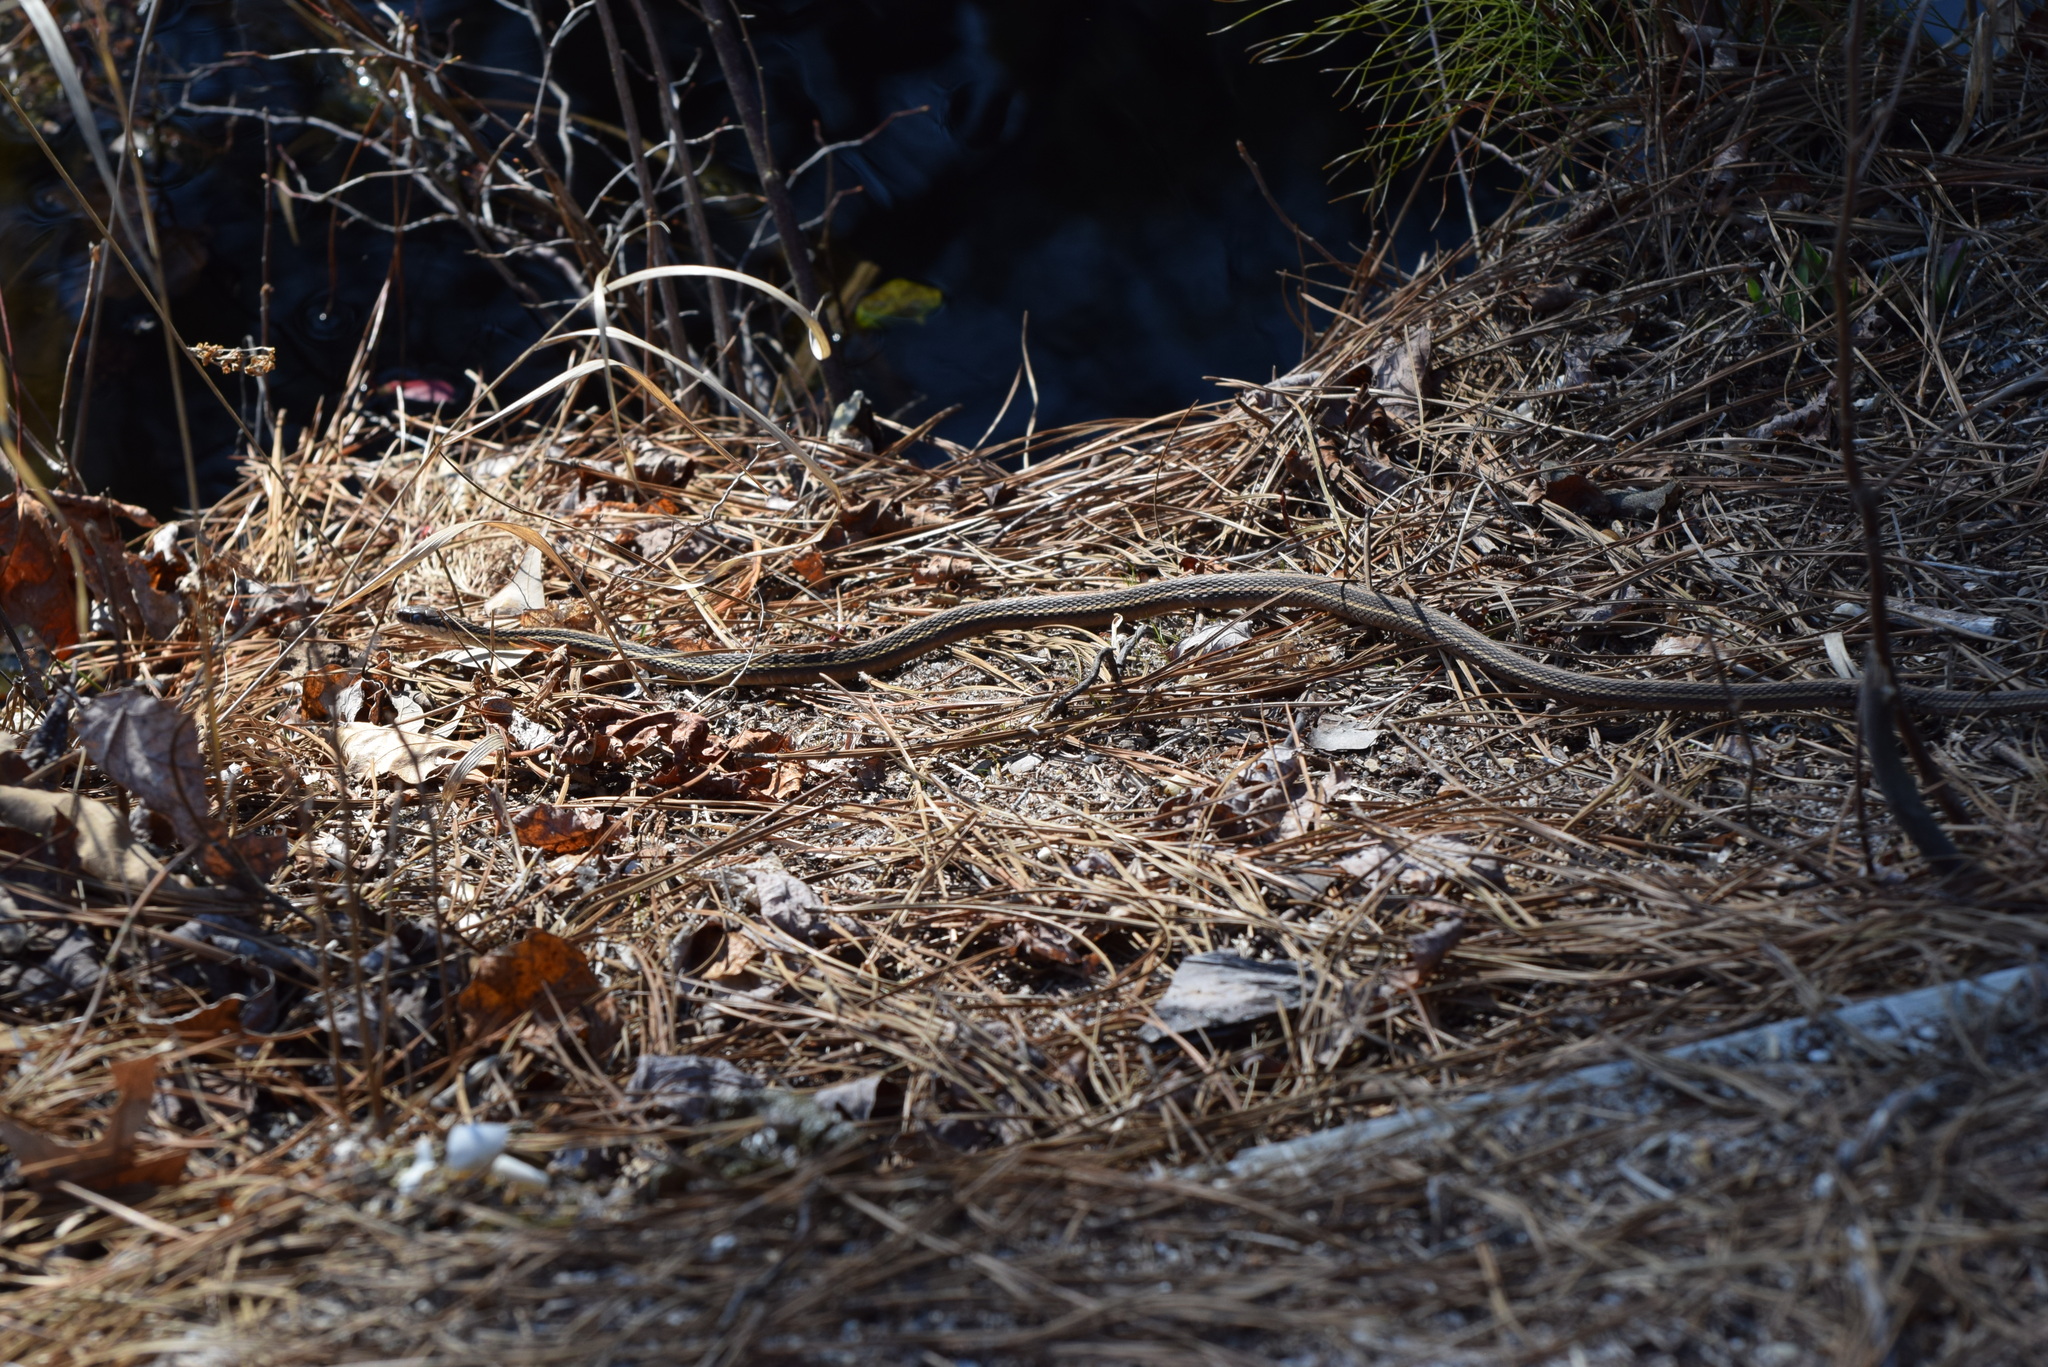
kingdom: Animalia
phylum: Chordata
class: Squamata
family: Colubridae
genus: Thamnophis
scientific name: Thamnophis saurita
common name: Eastern ribbonsnake
